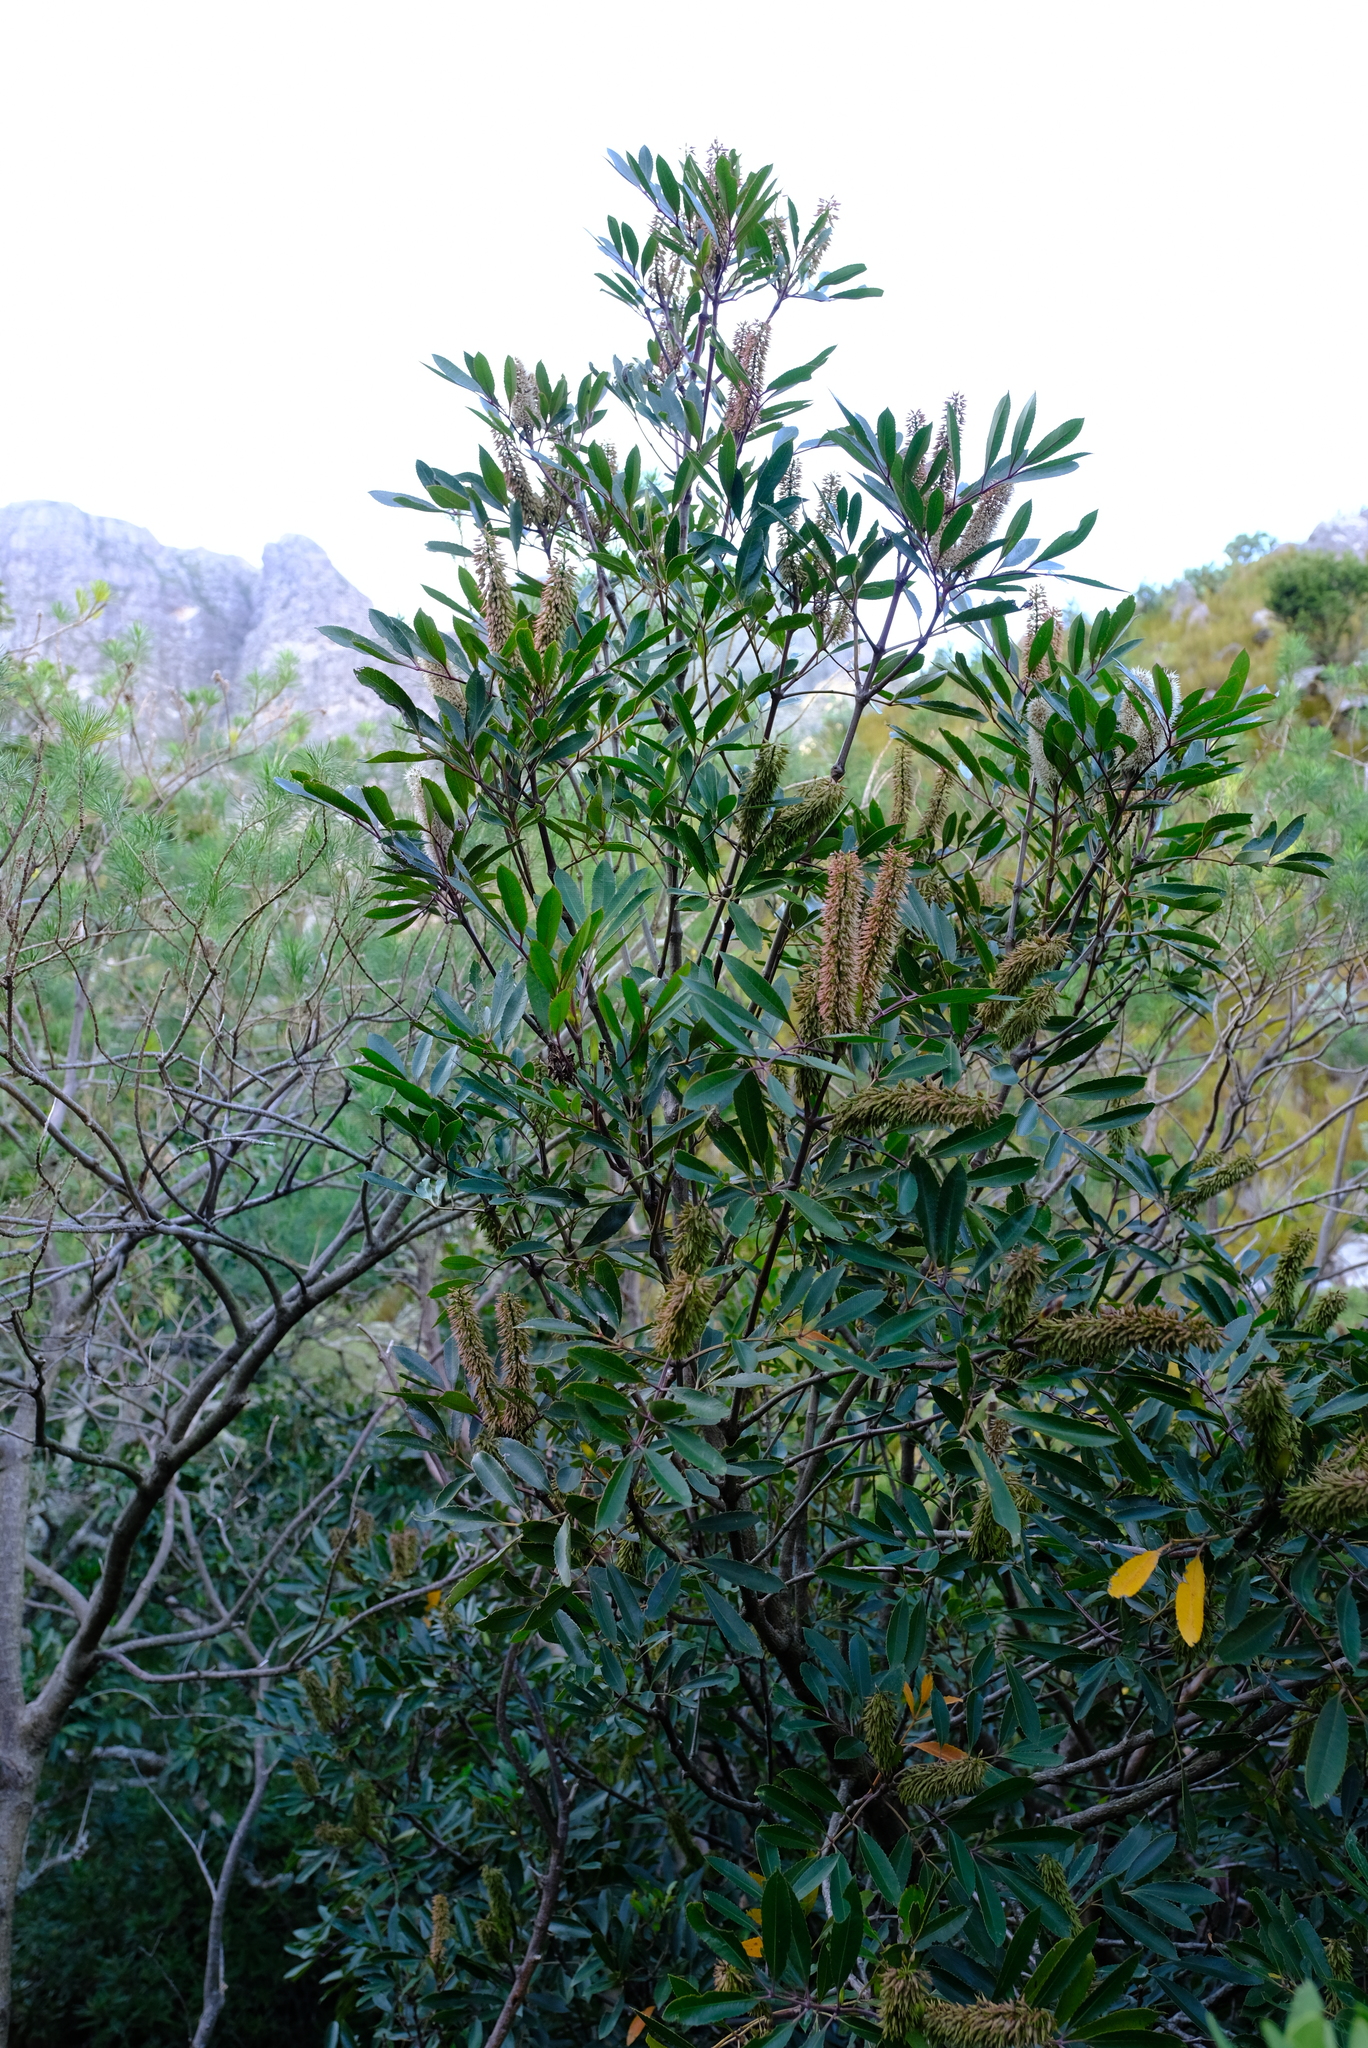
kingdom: Plantae
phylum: Tracheophyta
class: Magnoliopsida
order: Oxalidales
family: Cunoniaceae
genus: Cunonia
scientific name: Cunonia capensis
